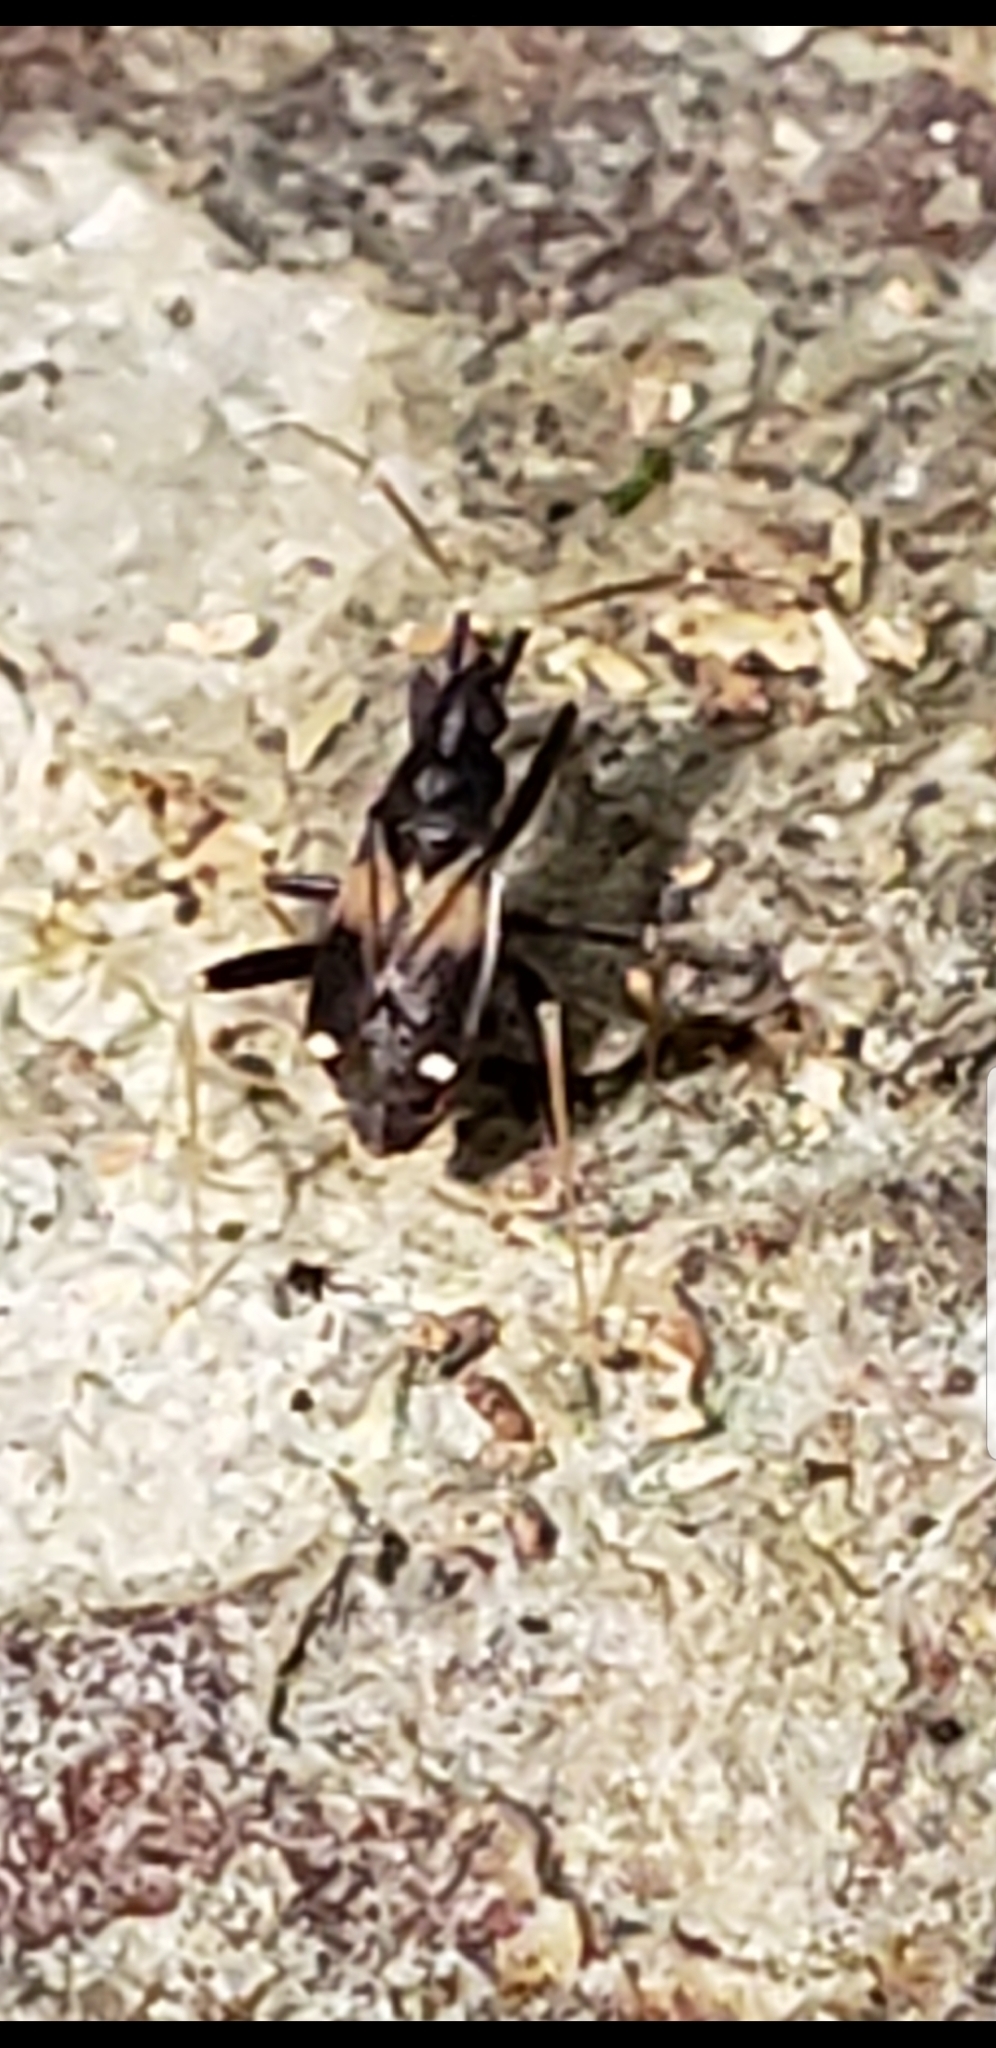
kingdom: Animalia
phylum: Arthropoda
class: Insecta
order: Hemiptera
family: Miridae
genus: Fulvius
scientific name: Fulvius slateri
